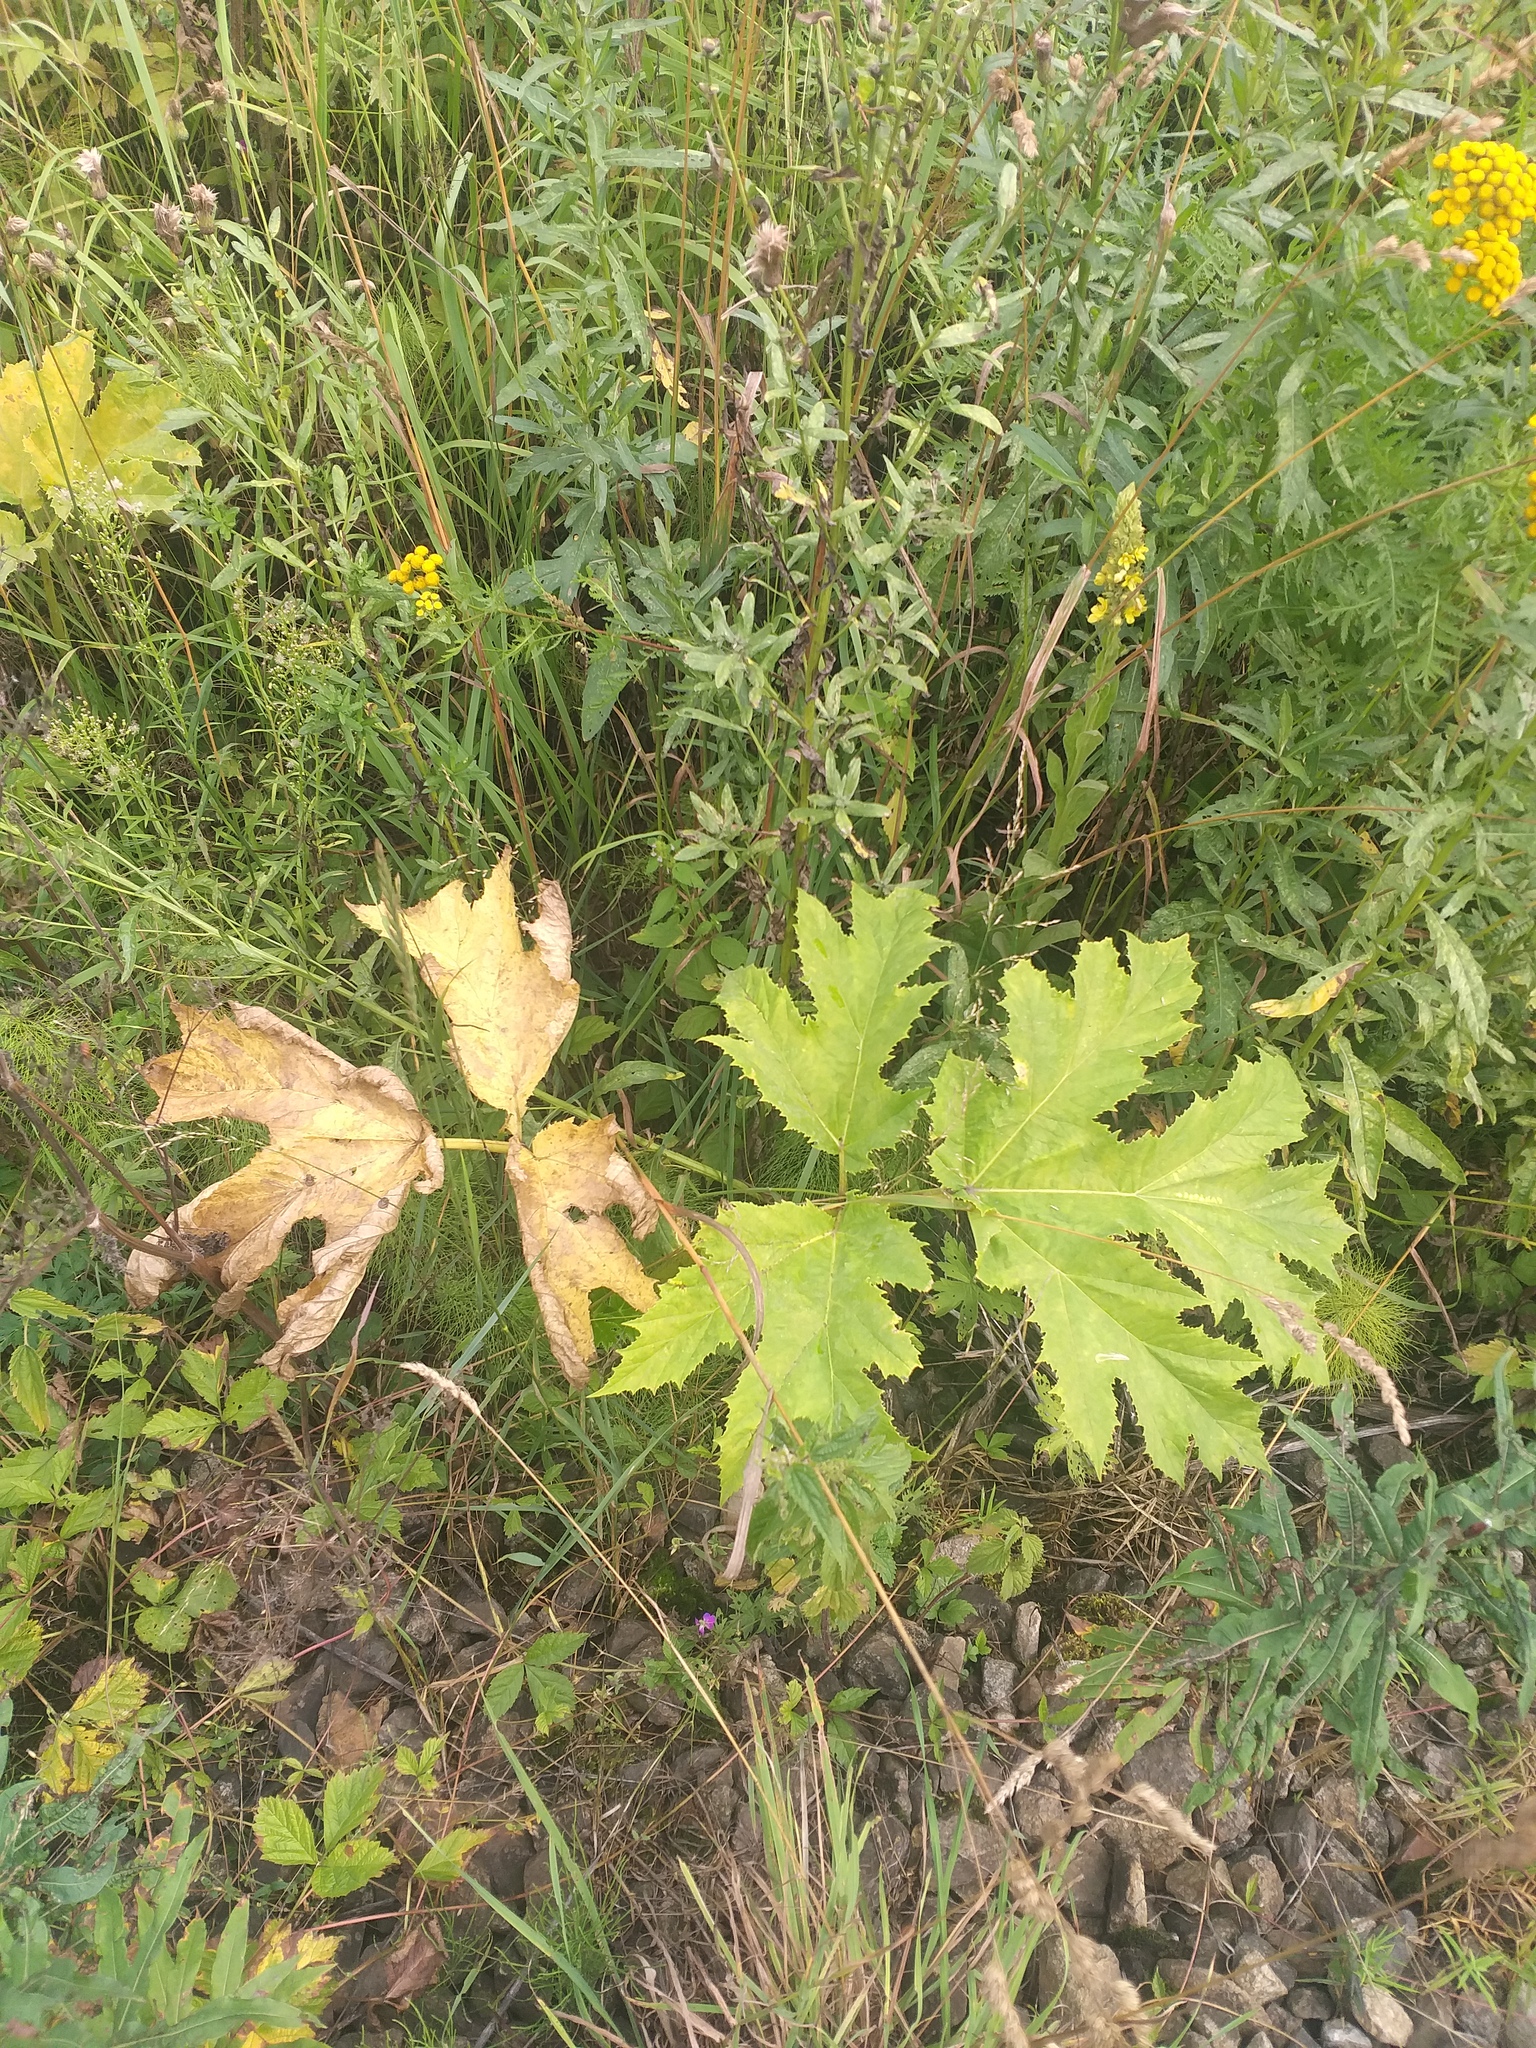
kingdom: Plantae
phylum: Tracheophyta
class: Magnoliopsida
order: Apiales
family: Apiaceae
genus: Heracleum
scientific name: Heracleum sosnowskyi
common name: Sosnowsky's hogweed
